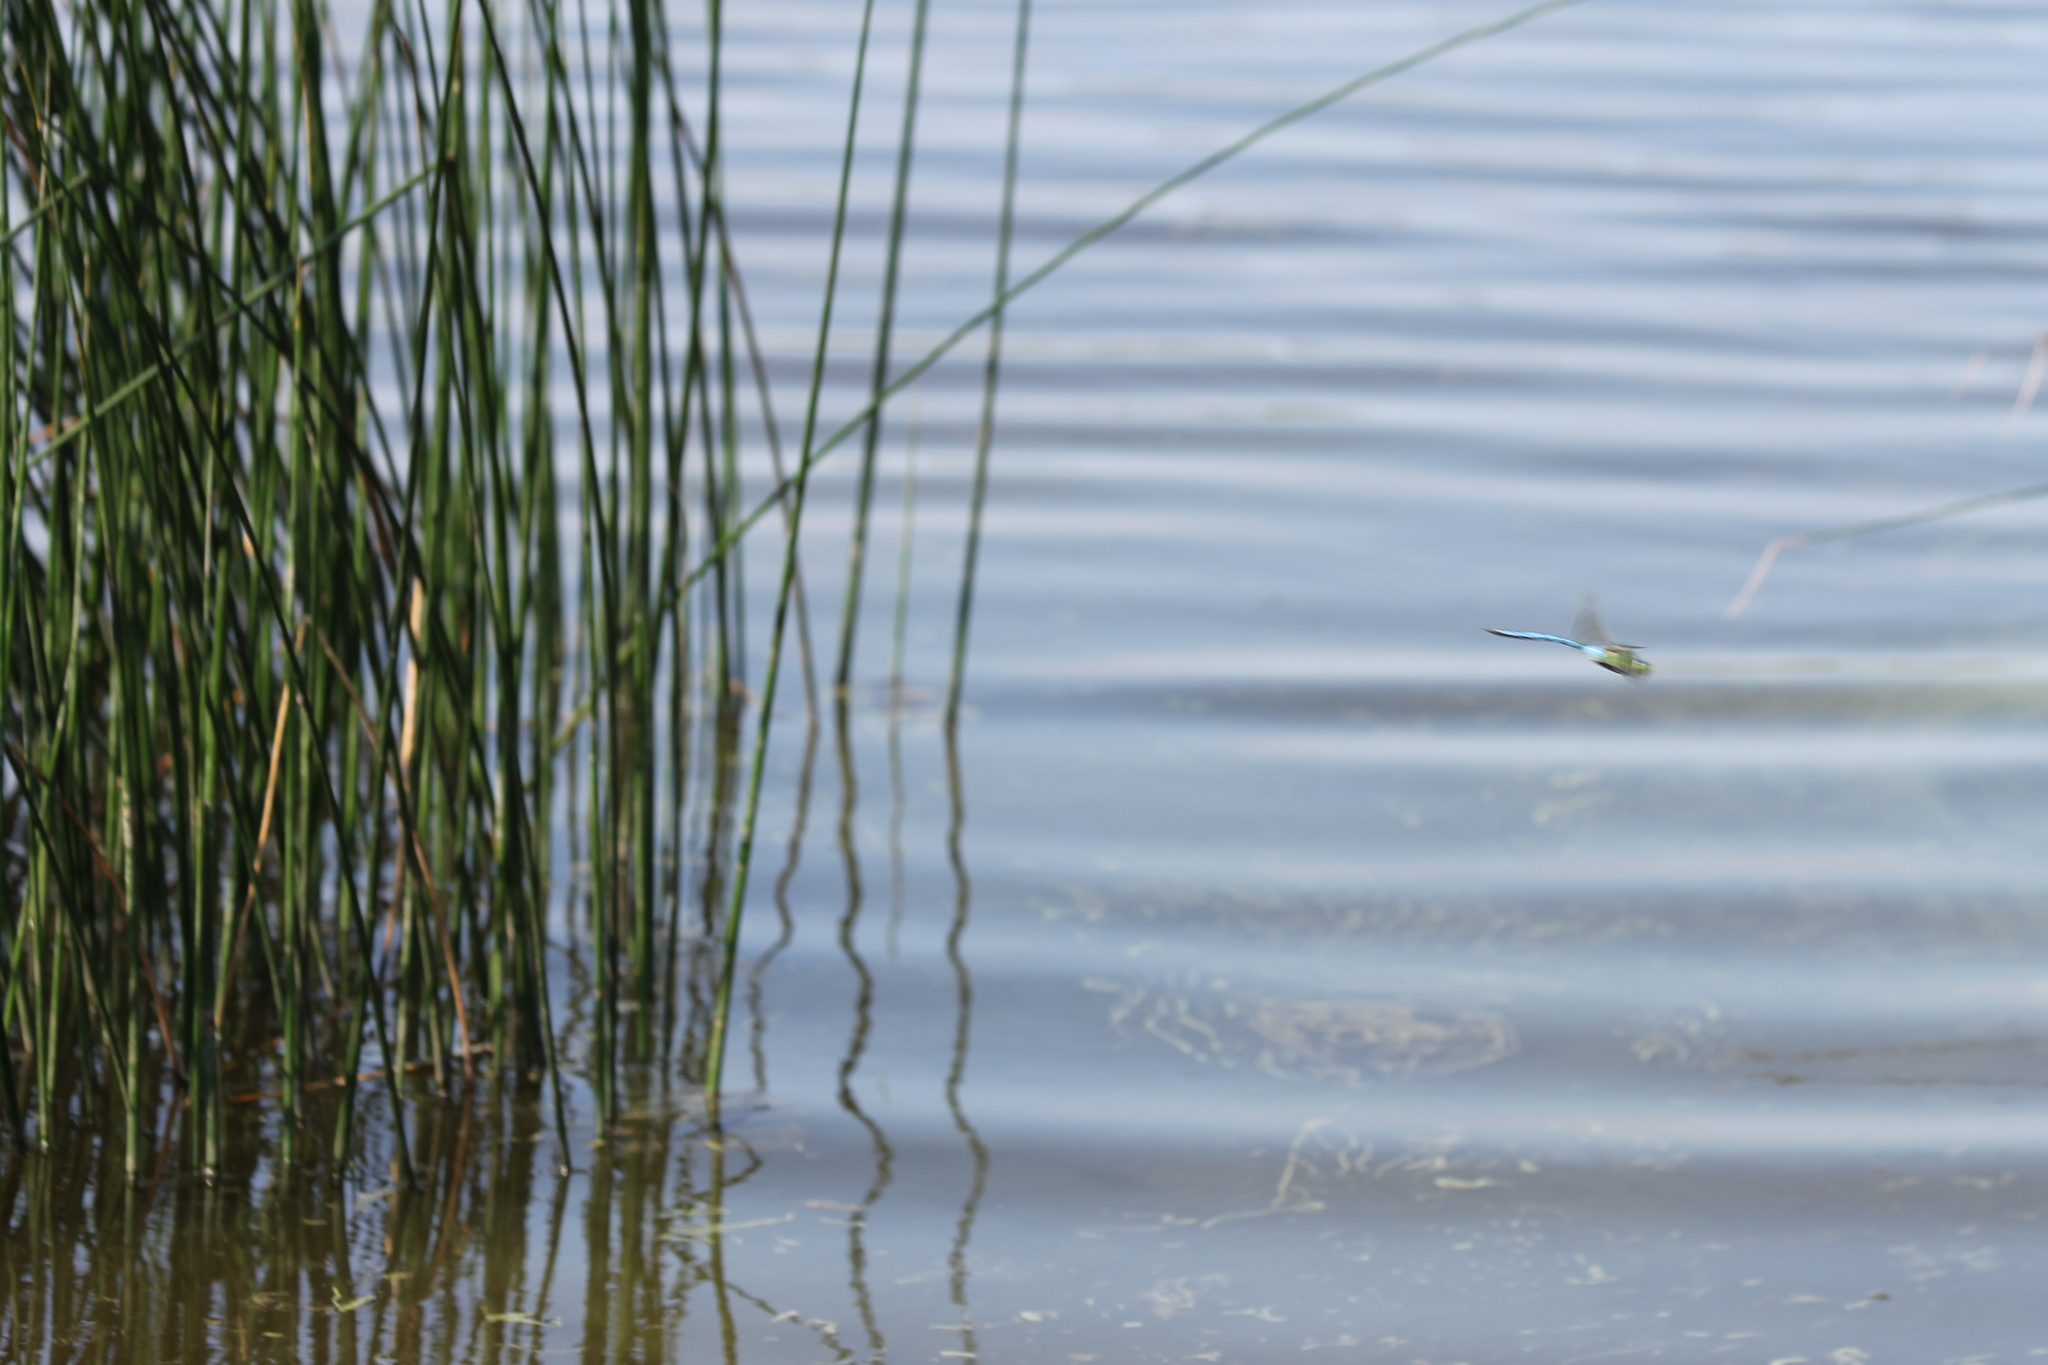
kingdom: Animalia
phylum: Arthropoda
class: Insecta
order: Odonata
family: Aeshnidae
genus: Anax
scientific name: Anax imperator
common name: Emperor dragonfly
